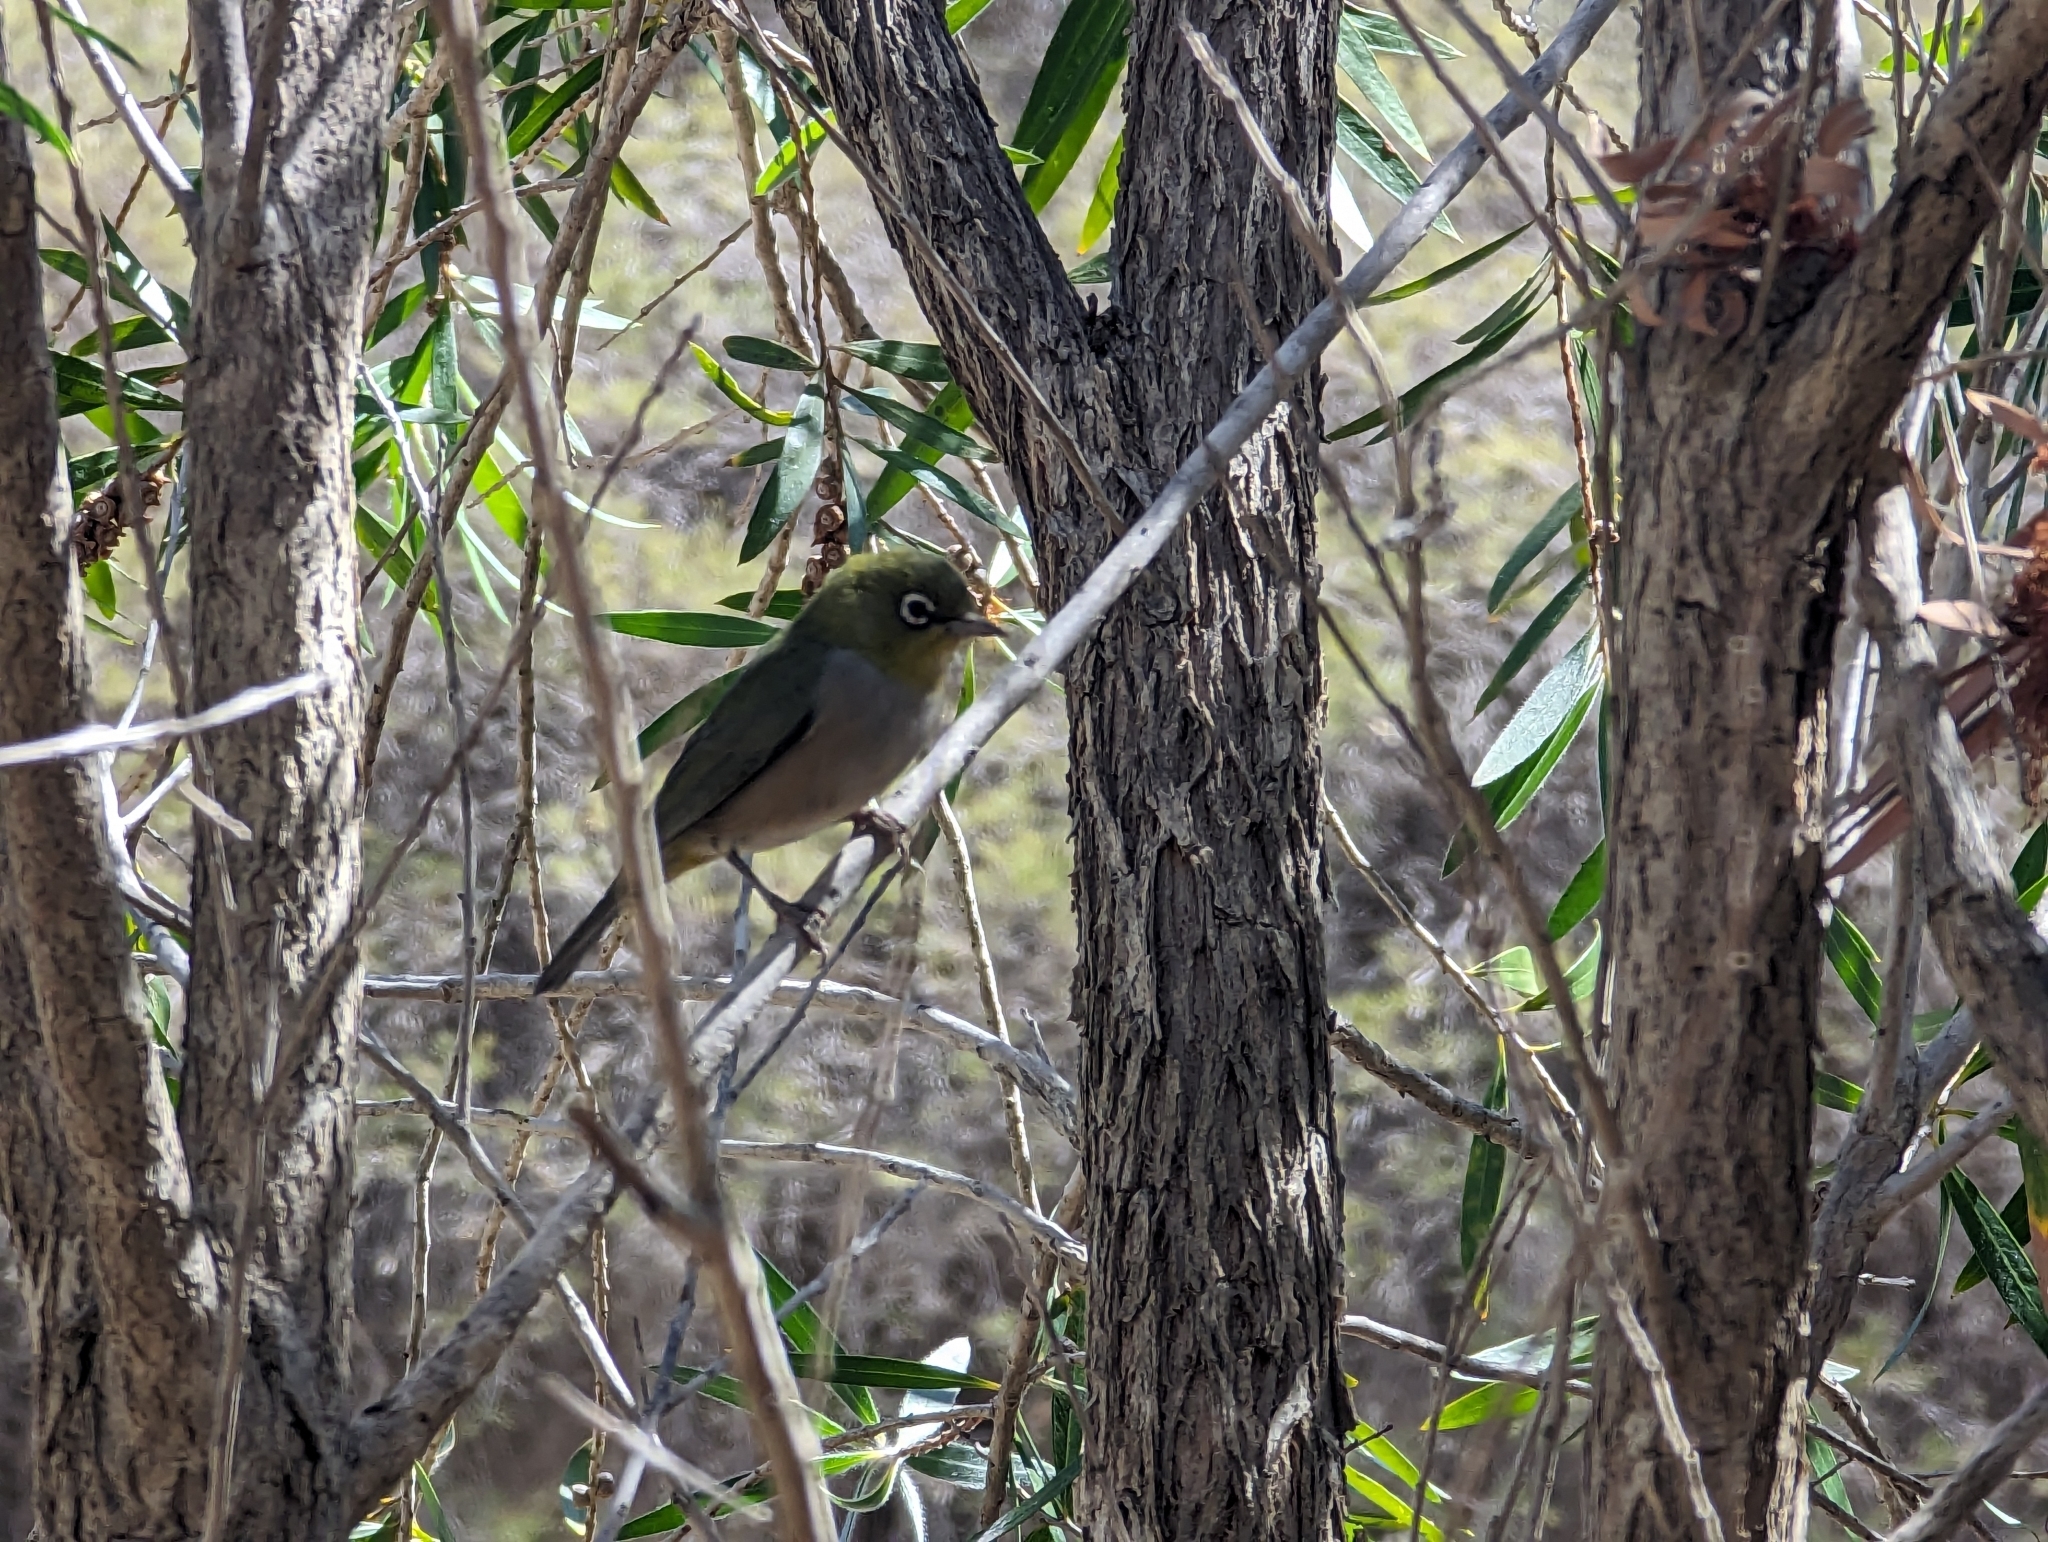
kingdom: Animalia
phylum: Chordata
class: Aves
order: Passeriformes
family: Zosteropidae
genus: Zosterops
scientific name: Zosterops lateralis
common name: Silvereye
